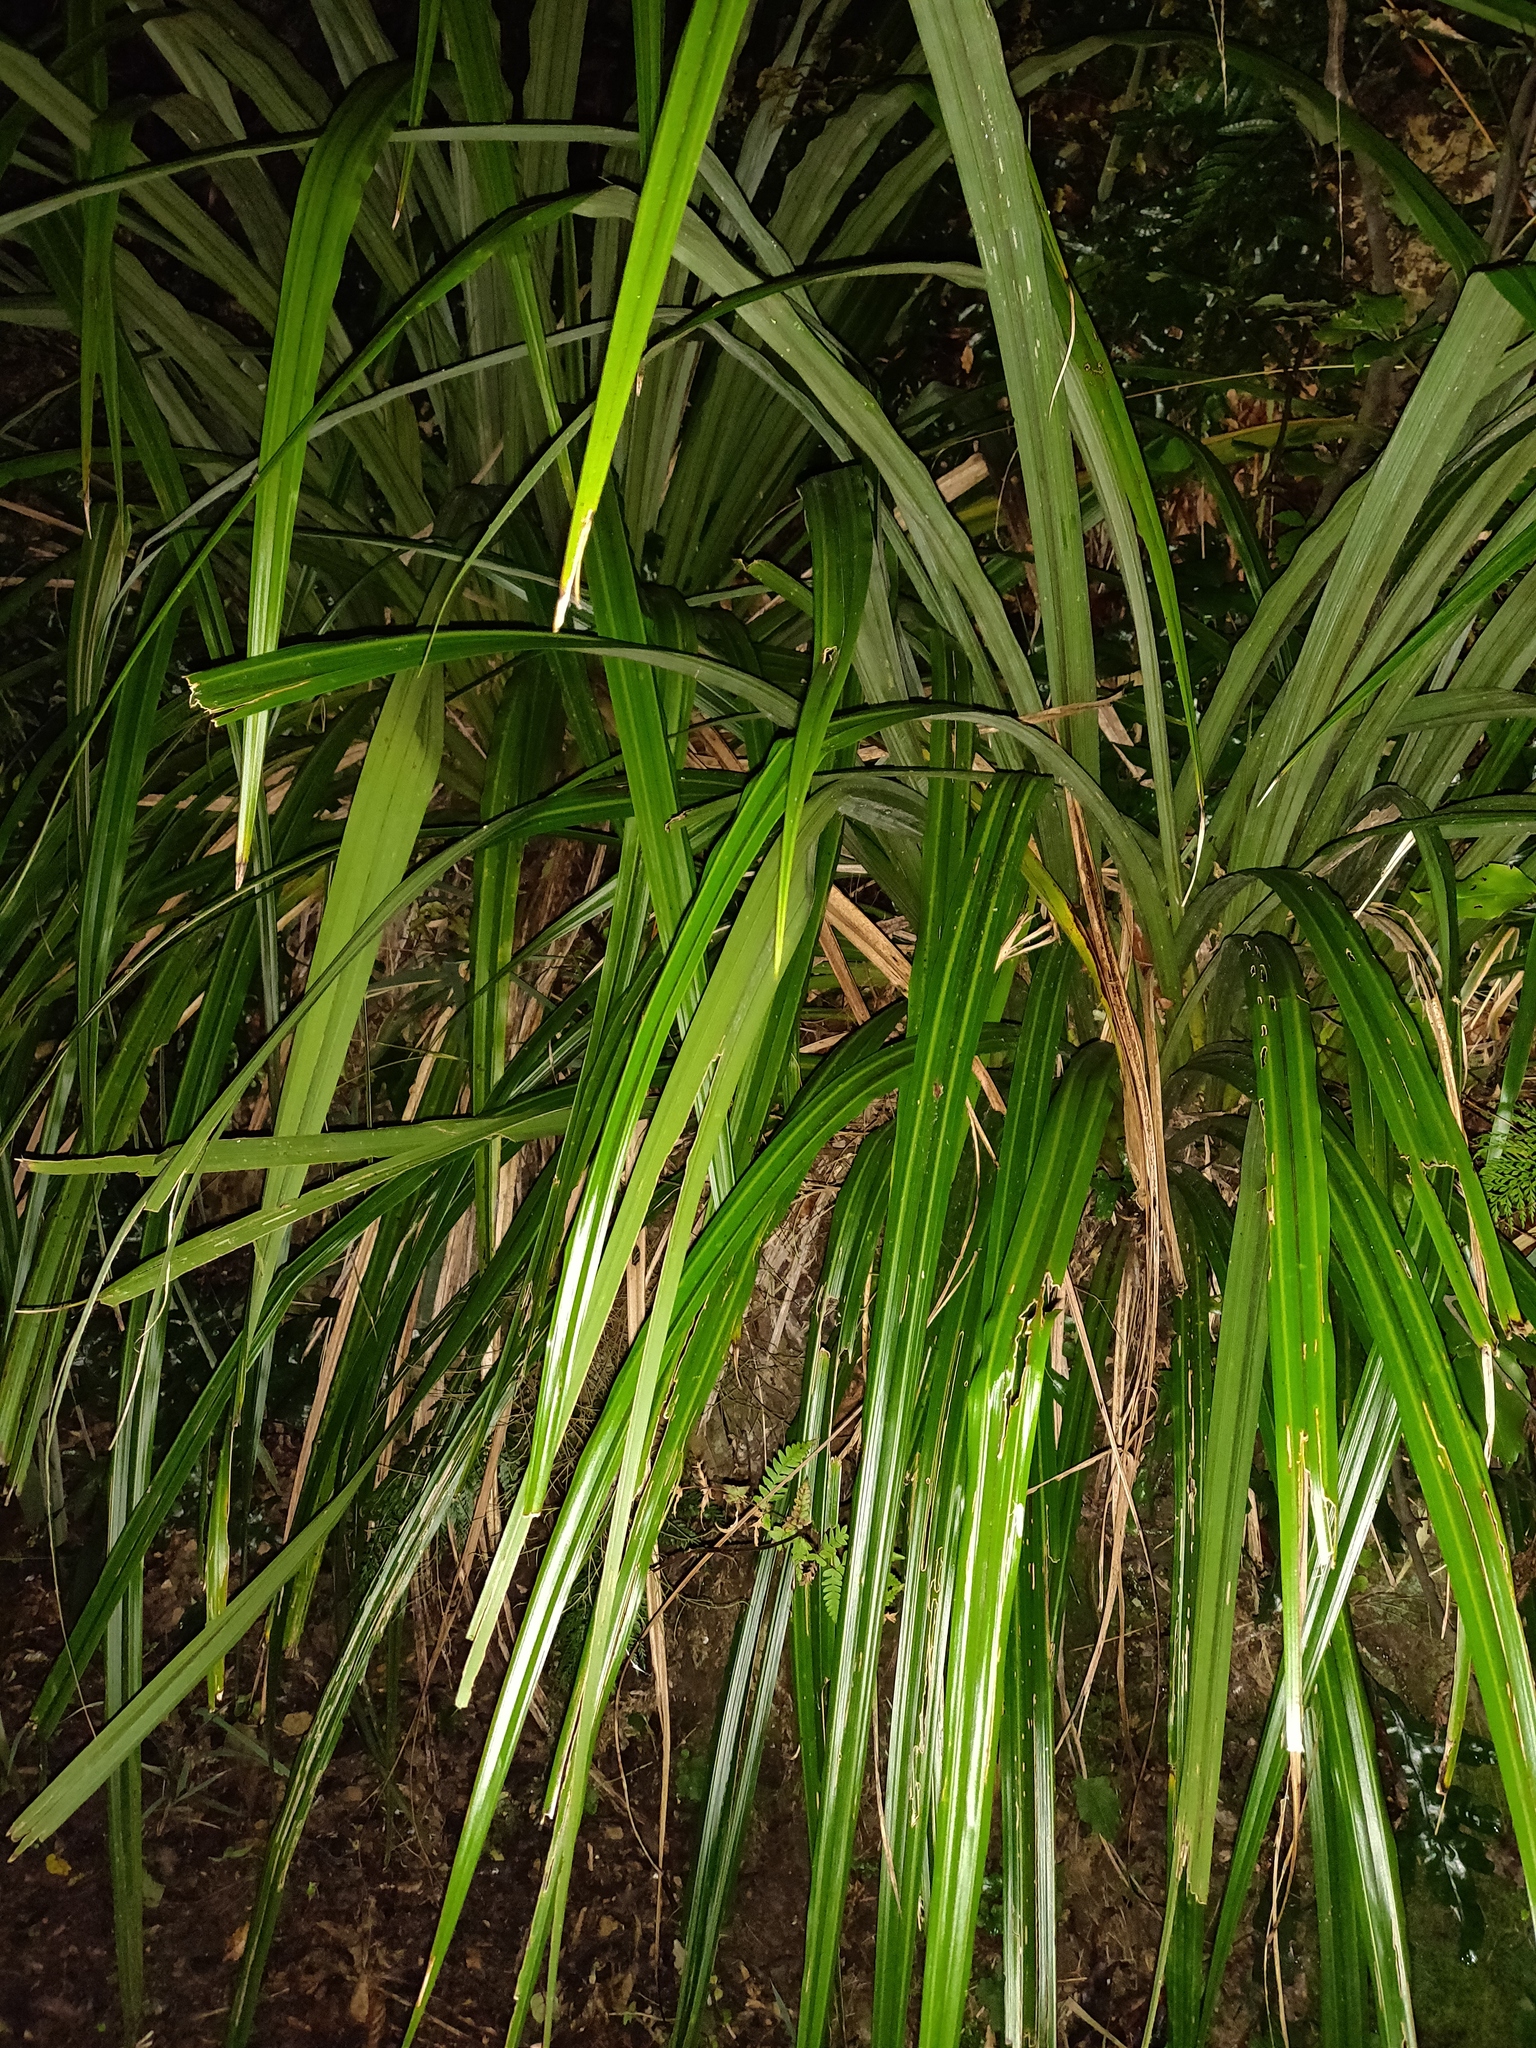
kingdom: Plantae
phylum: Tracheophyta
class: Liliopsida
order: Asparagales
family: Asteliaceae
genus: Astelia
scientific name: Astelia fragrans
